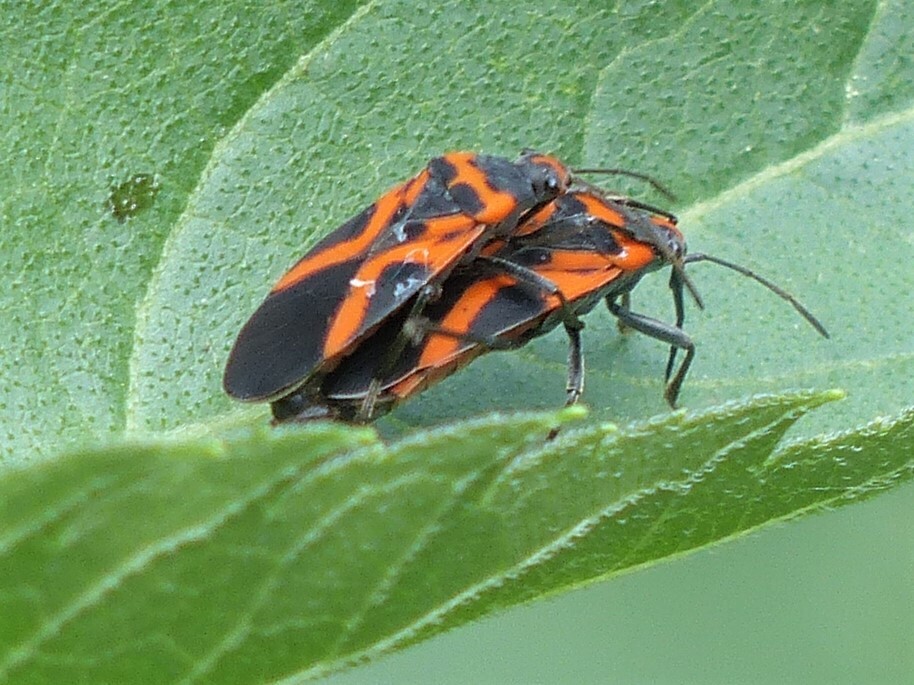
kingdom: Animalia
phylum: Arthropoda
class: Insecta
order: Hemiptera
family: Lygaeidae
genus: Lygaeus
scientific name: Lygaeus turcicus
